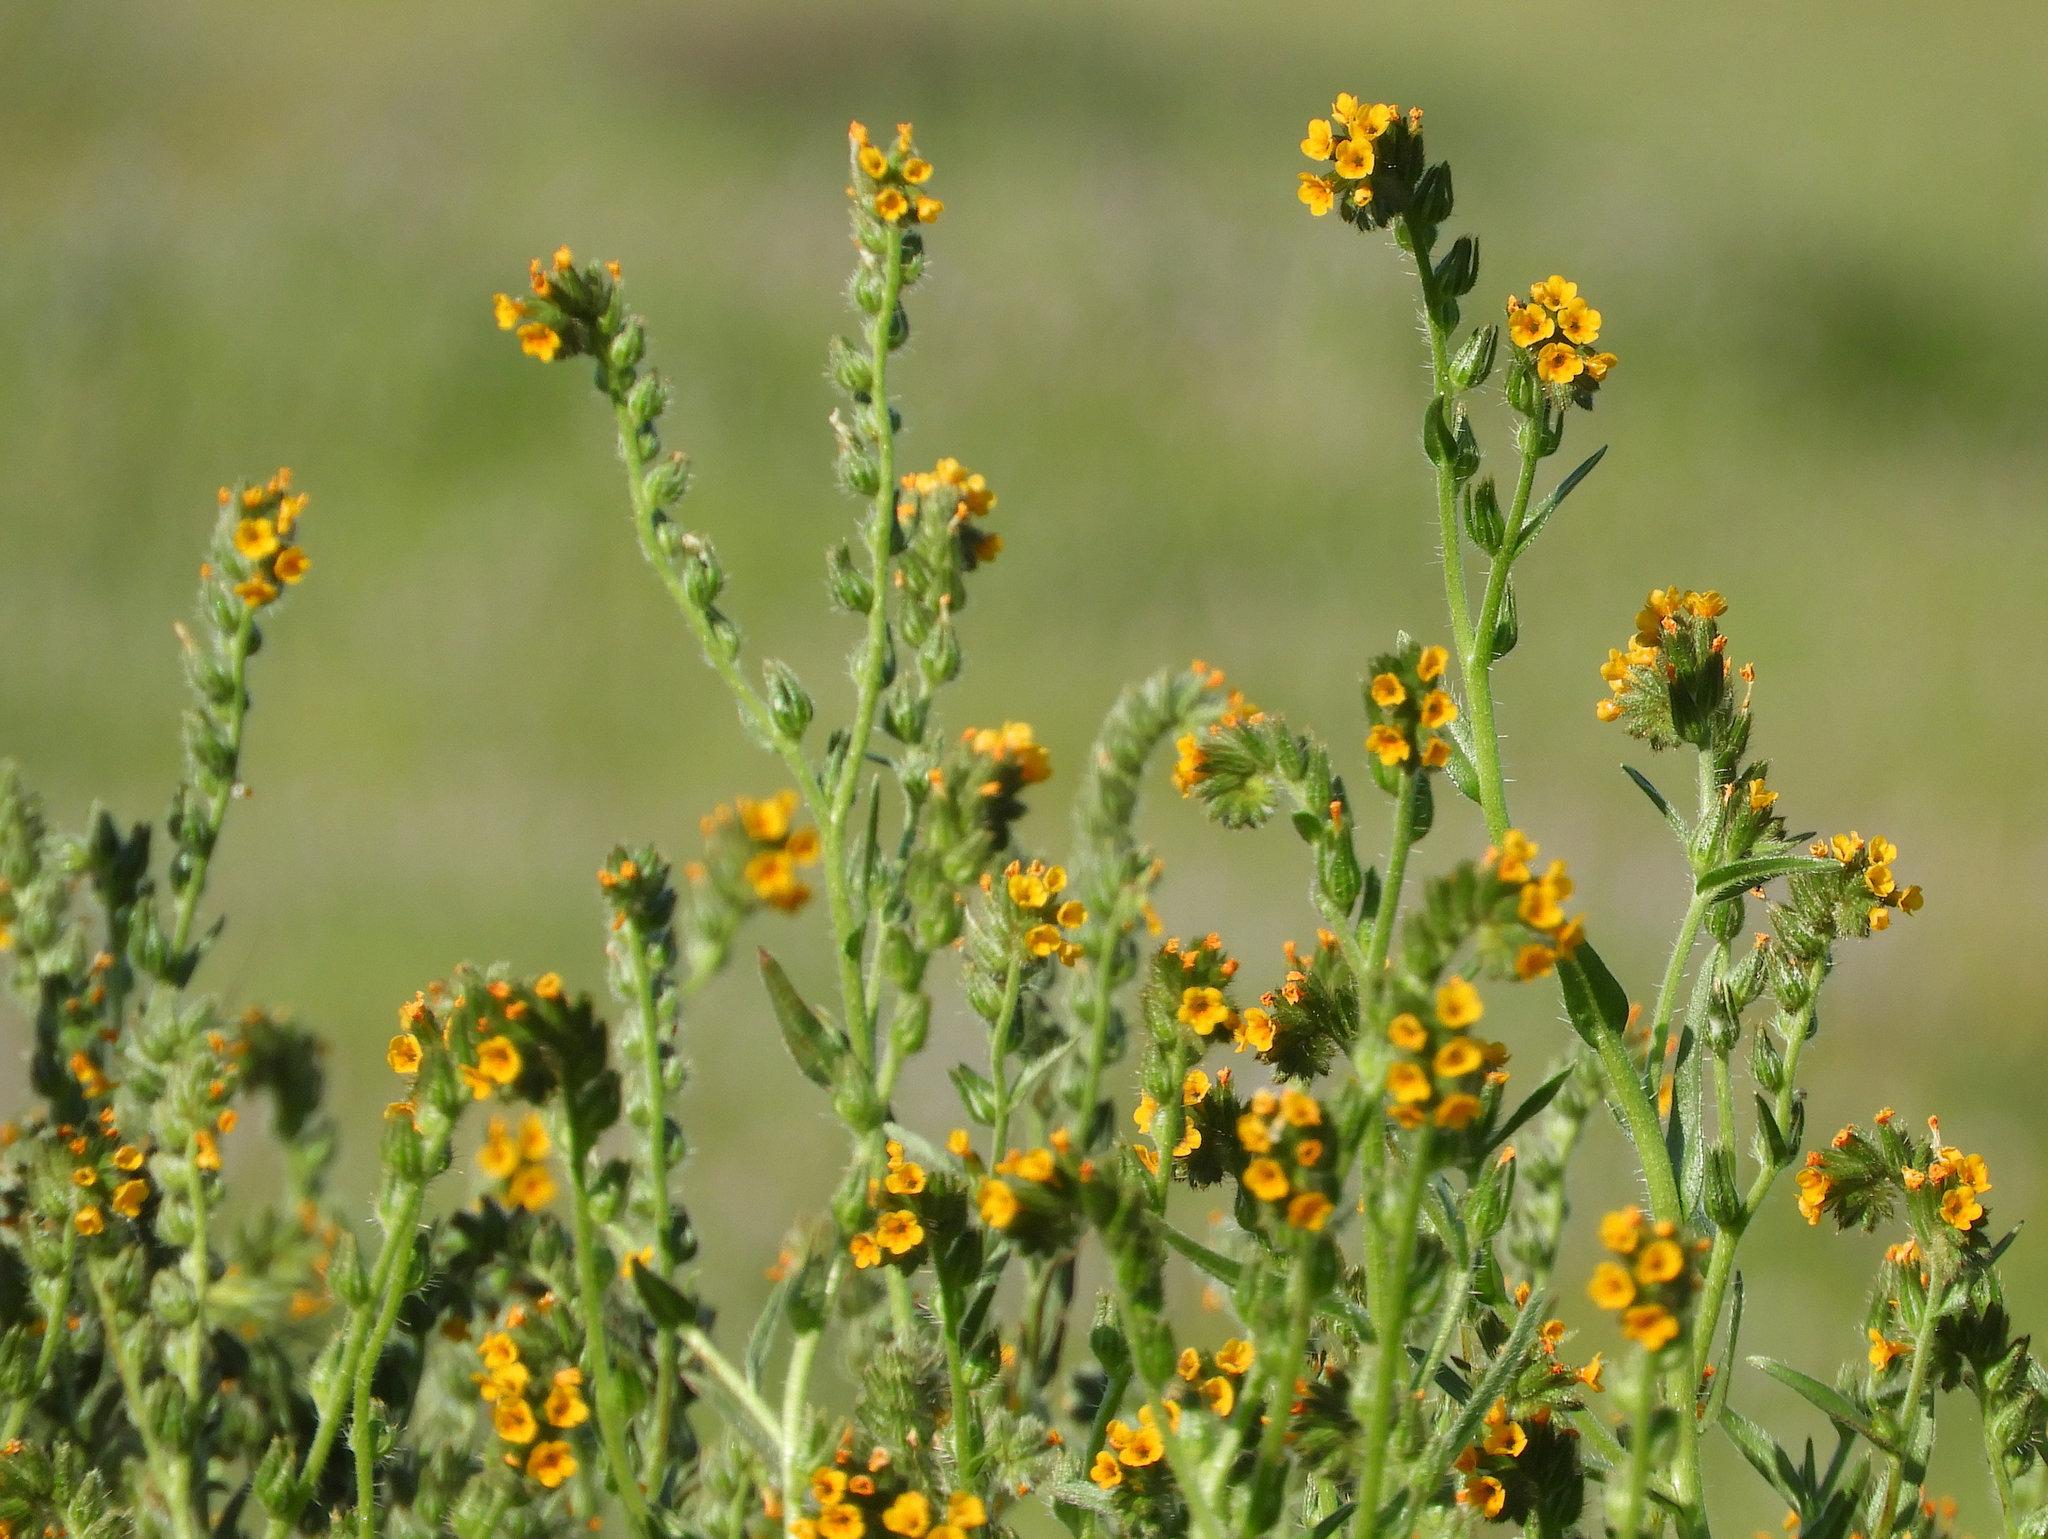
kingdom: Plantae
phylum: Tracheophyta
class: Magnoliopsida
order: Boraginales
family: Boraginaceae
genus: Amsinckia
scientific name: Amsinckia menziesii
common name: Menzies' fiddleneck
